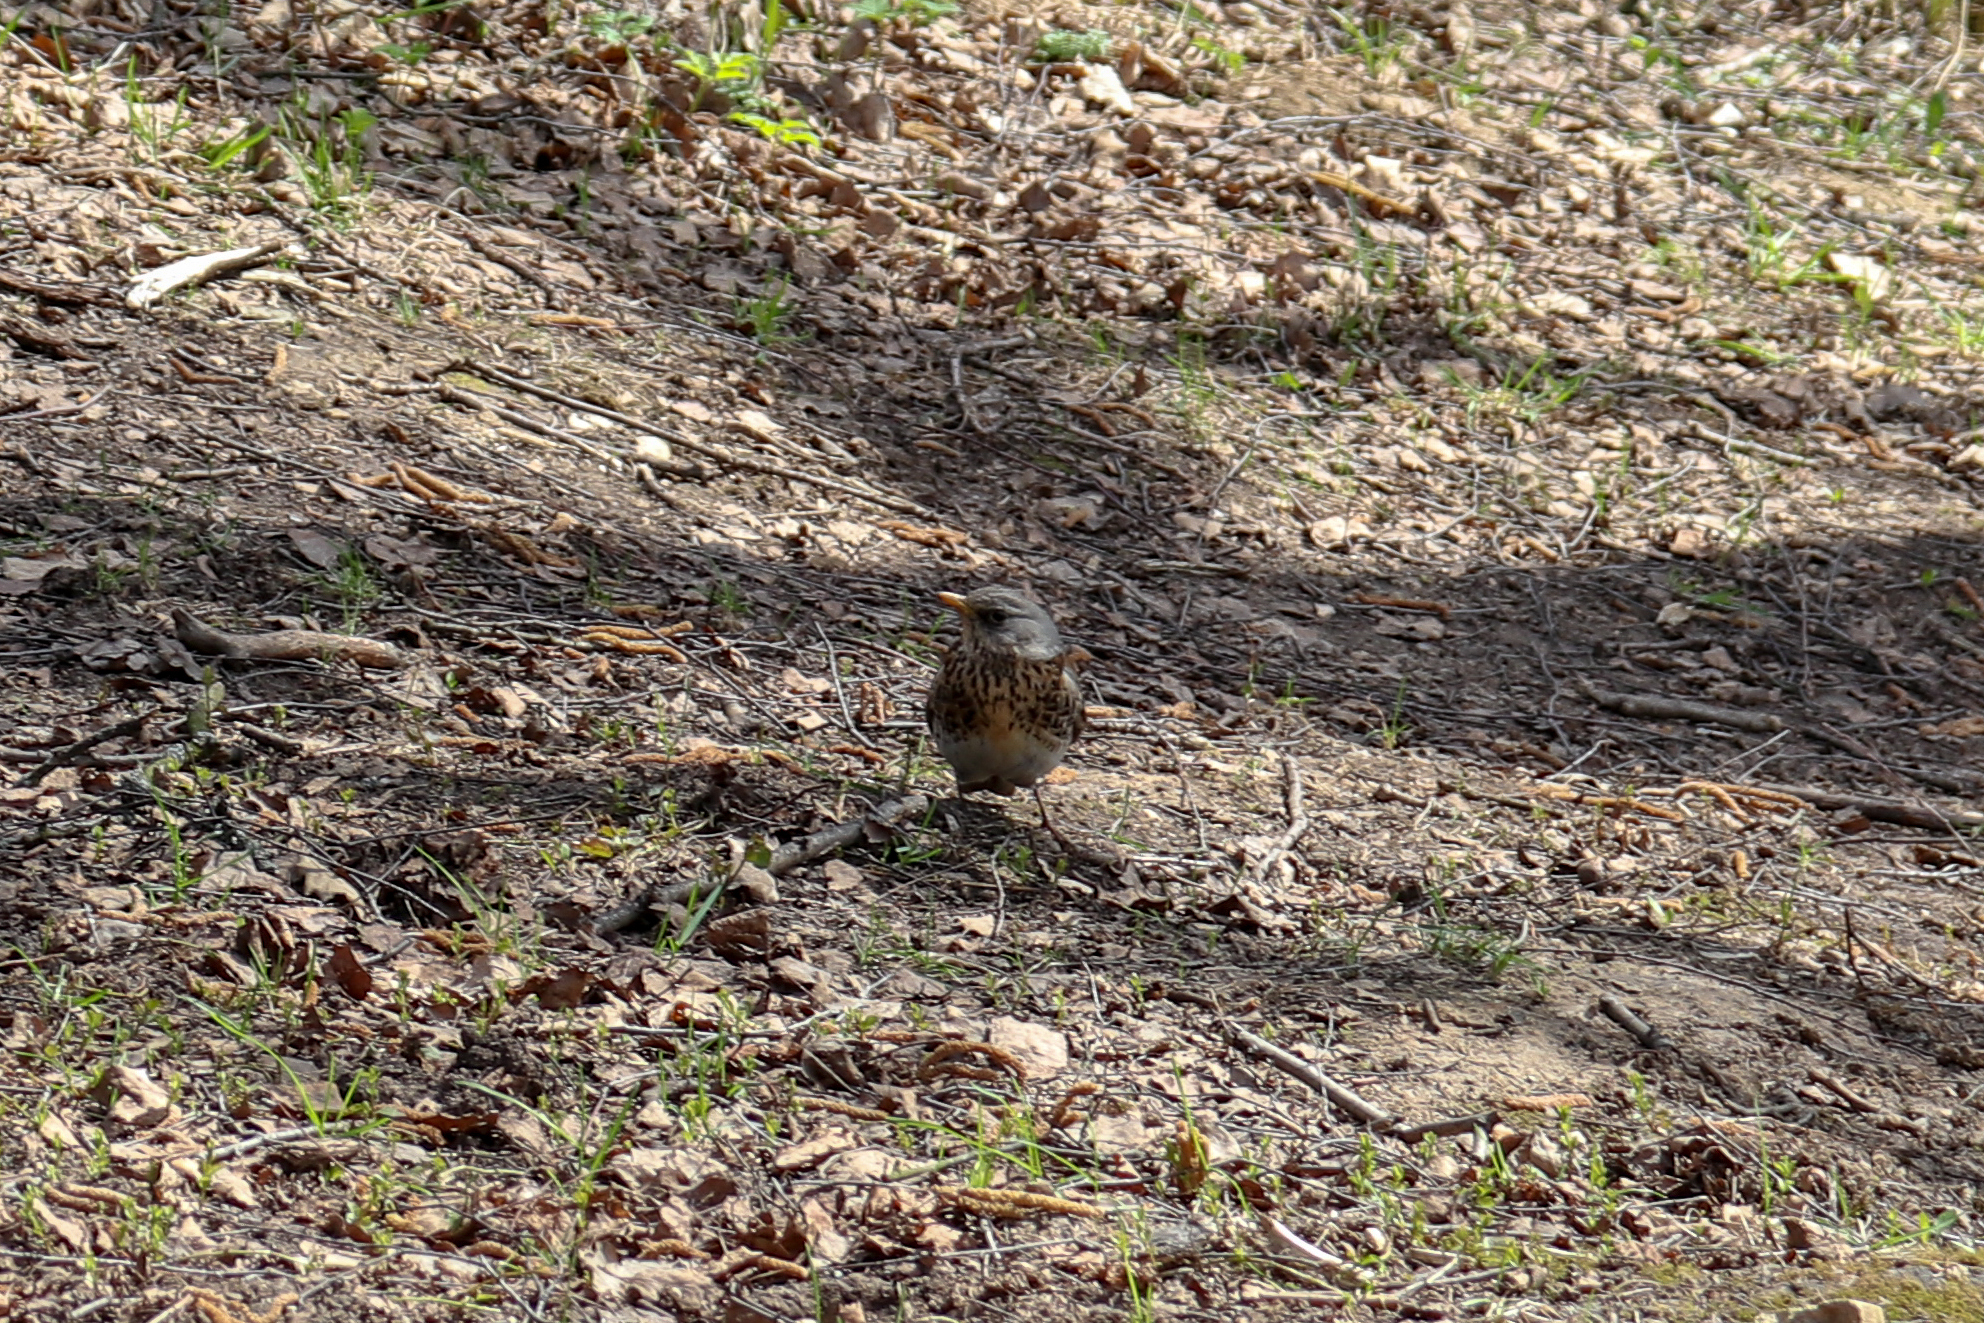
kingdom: Animalia
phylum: Chordata
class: Aves
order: Passeriformes
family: Turdidae
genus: Turdus
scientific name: Turdus pilaris
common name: Fieldfare
